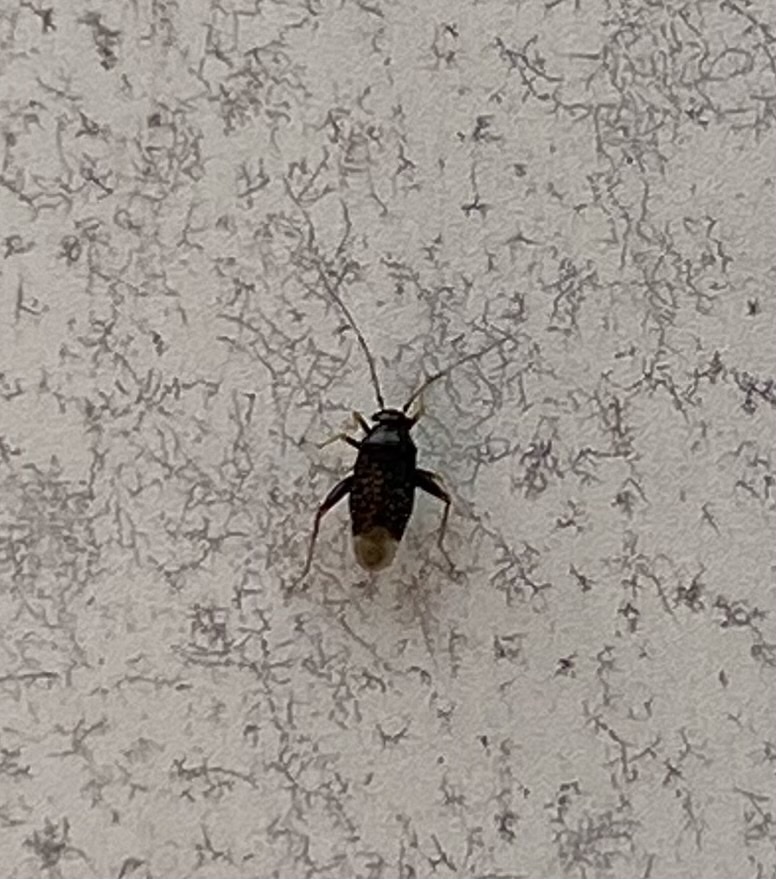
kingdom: Animalia
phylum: Arthropoda
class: Insecta
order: Hemiptera
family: Miridae
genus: Microtechnites
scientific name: Microtechnites bractatus
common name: Garden fleahopper
